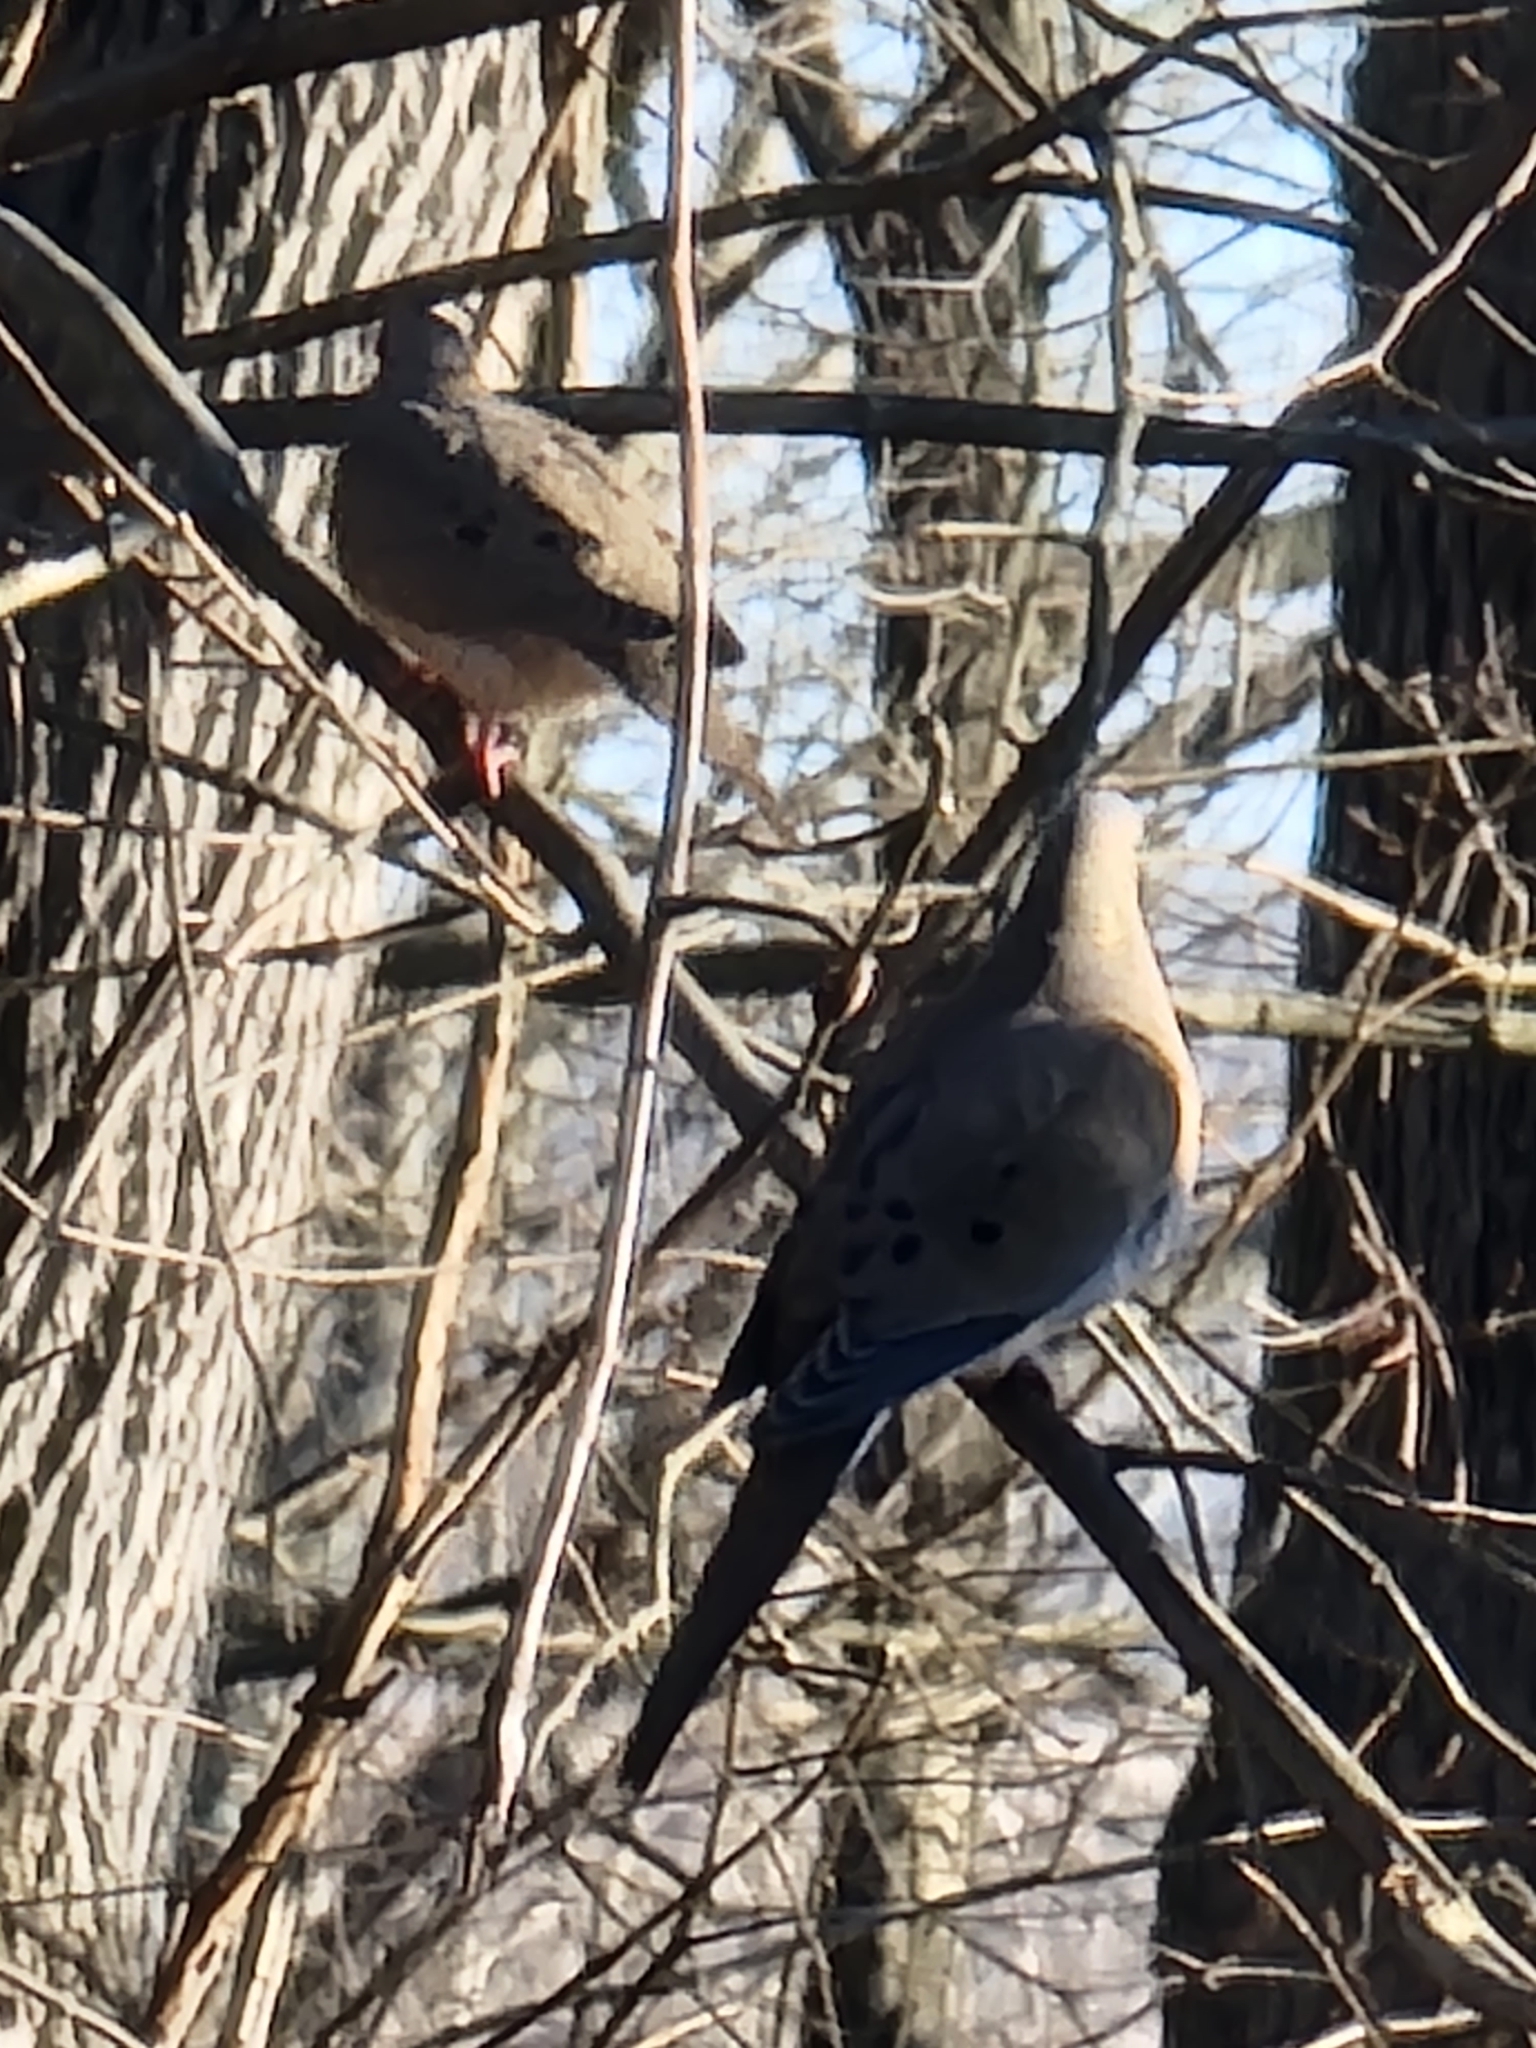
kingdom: Animalia
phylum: Chordata
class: Aves
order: Columbiformes
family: Columbidae
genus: Zenaida
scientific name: Zenaida macroura
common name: Mourning dove
